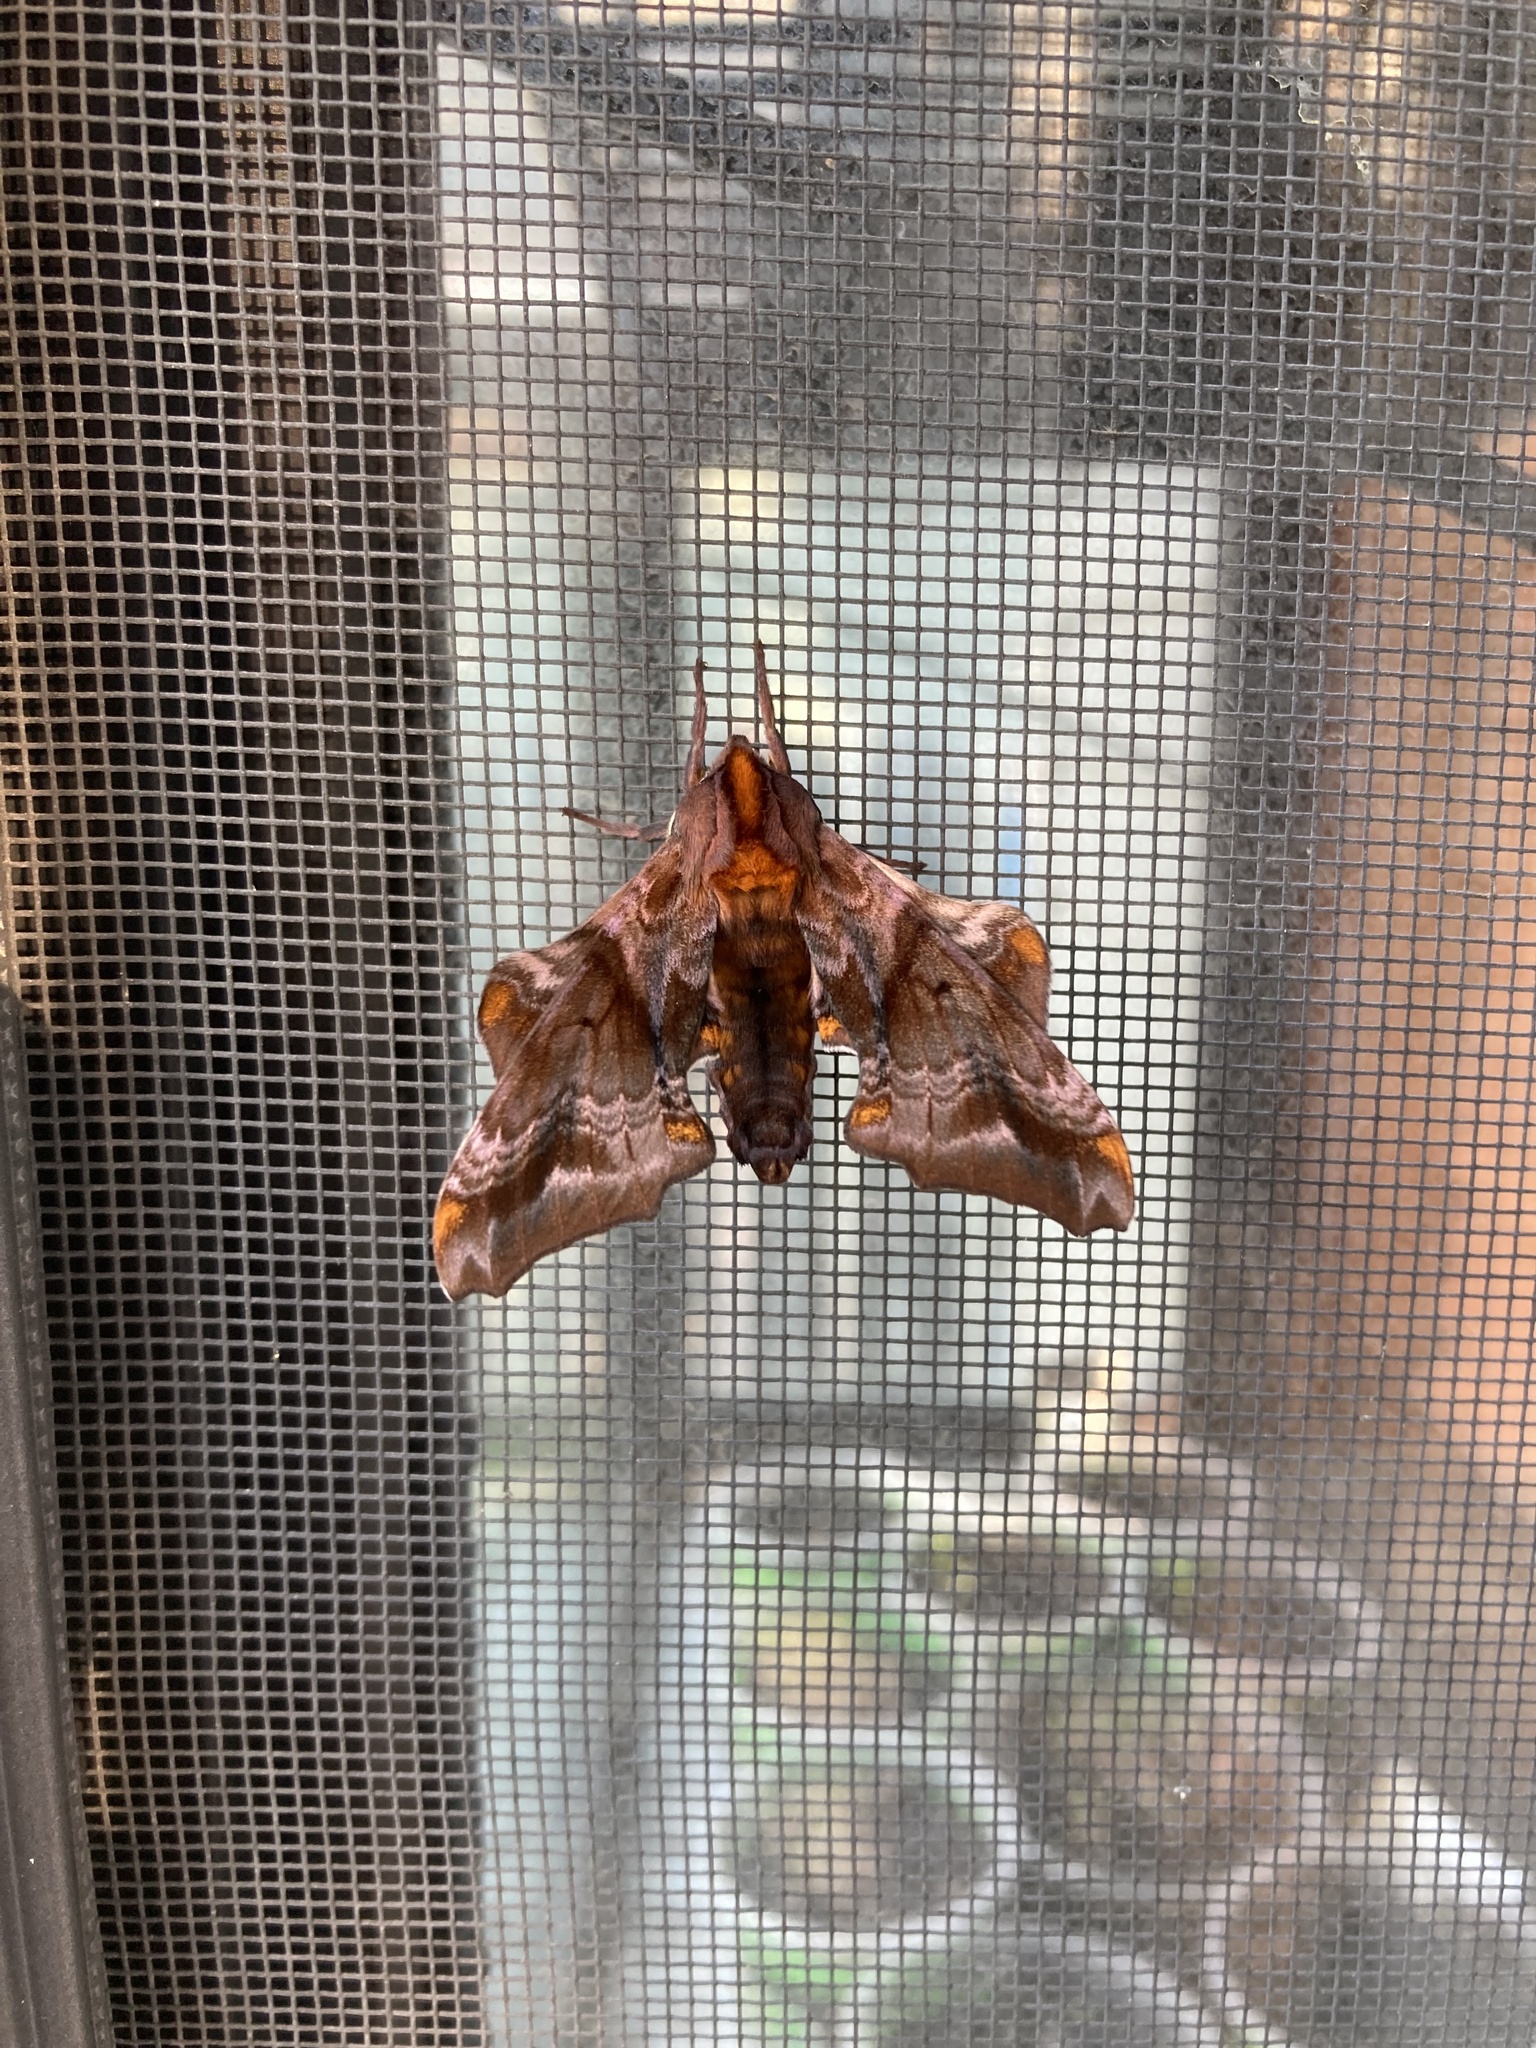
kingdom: Animalia
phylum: Arthropoda
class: Insecta
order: Lepidoptera
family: Sphingidae
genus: Paonias
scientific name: Paonias myops
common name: Small-eyed sphinx
